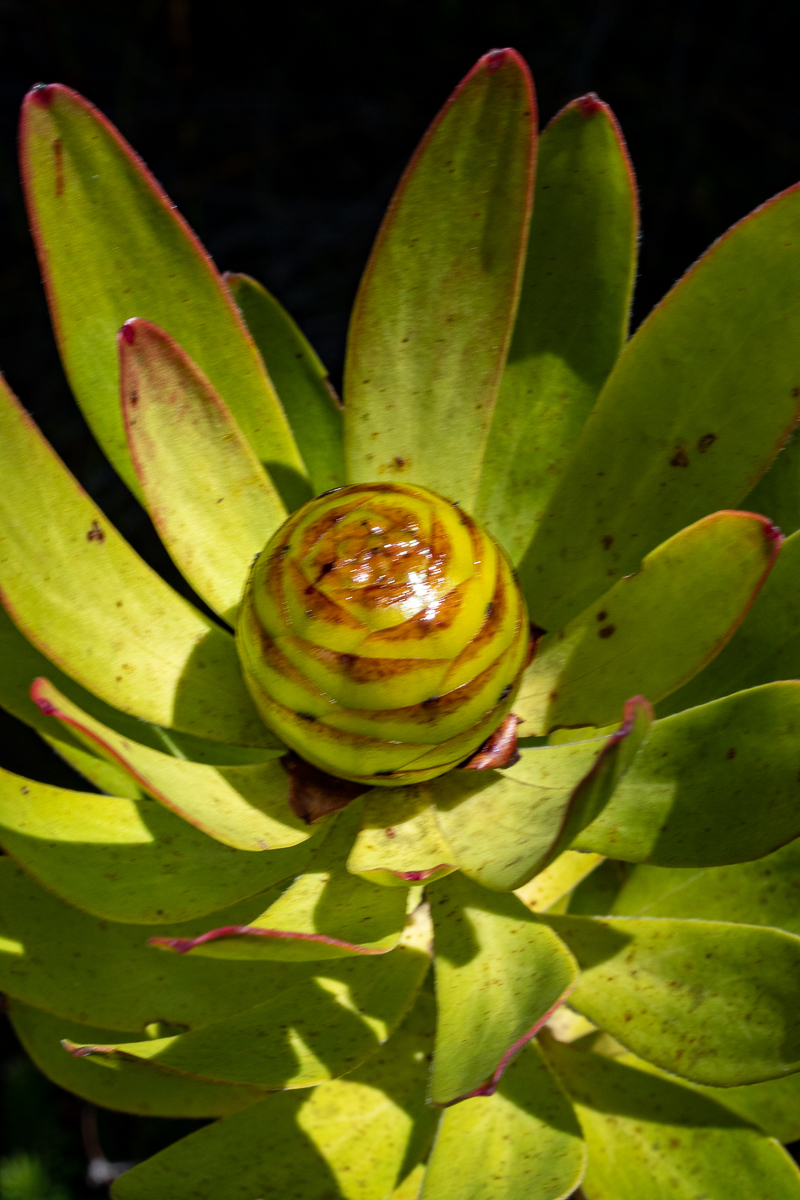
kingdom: Plantae
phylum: Tracheophyta
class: Magnoliopsida
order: Proteales
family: Proteaceae
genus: Leucadendron
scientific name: Leucadendron microcephalum
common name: Oilbract conebush
